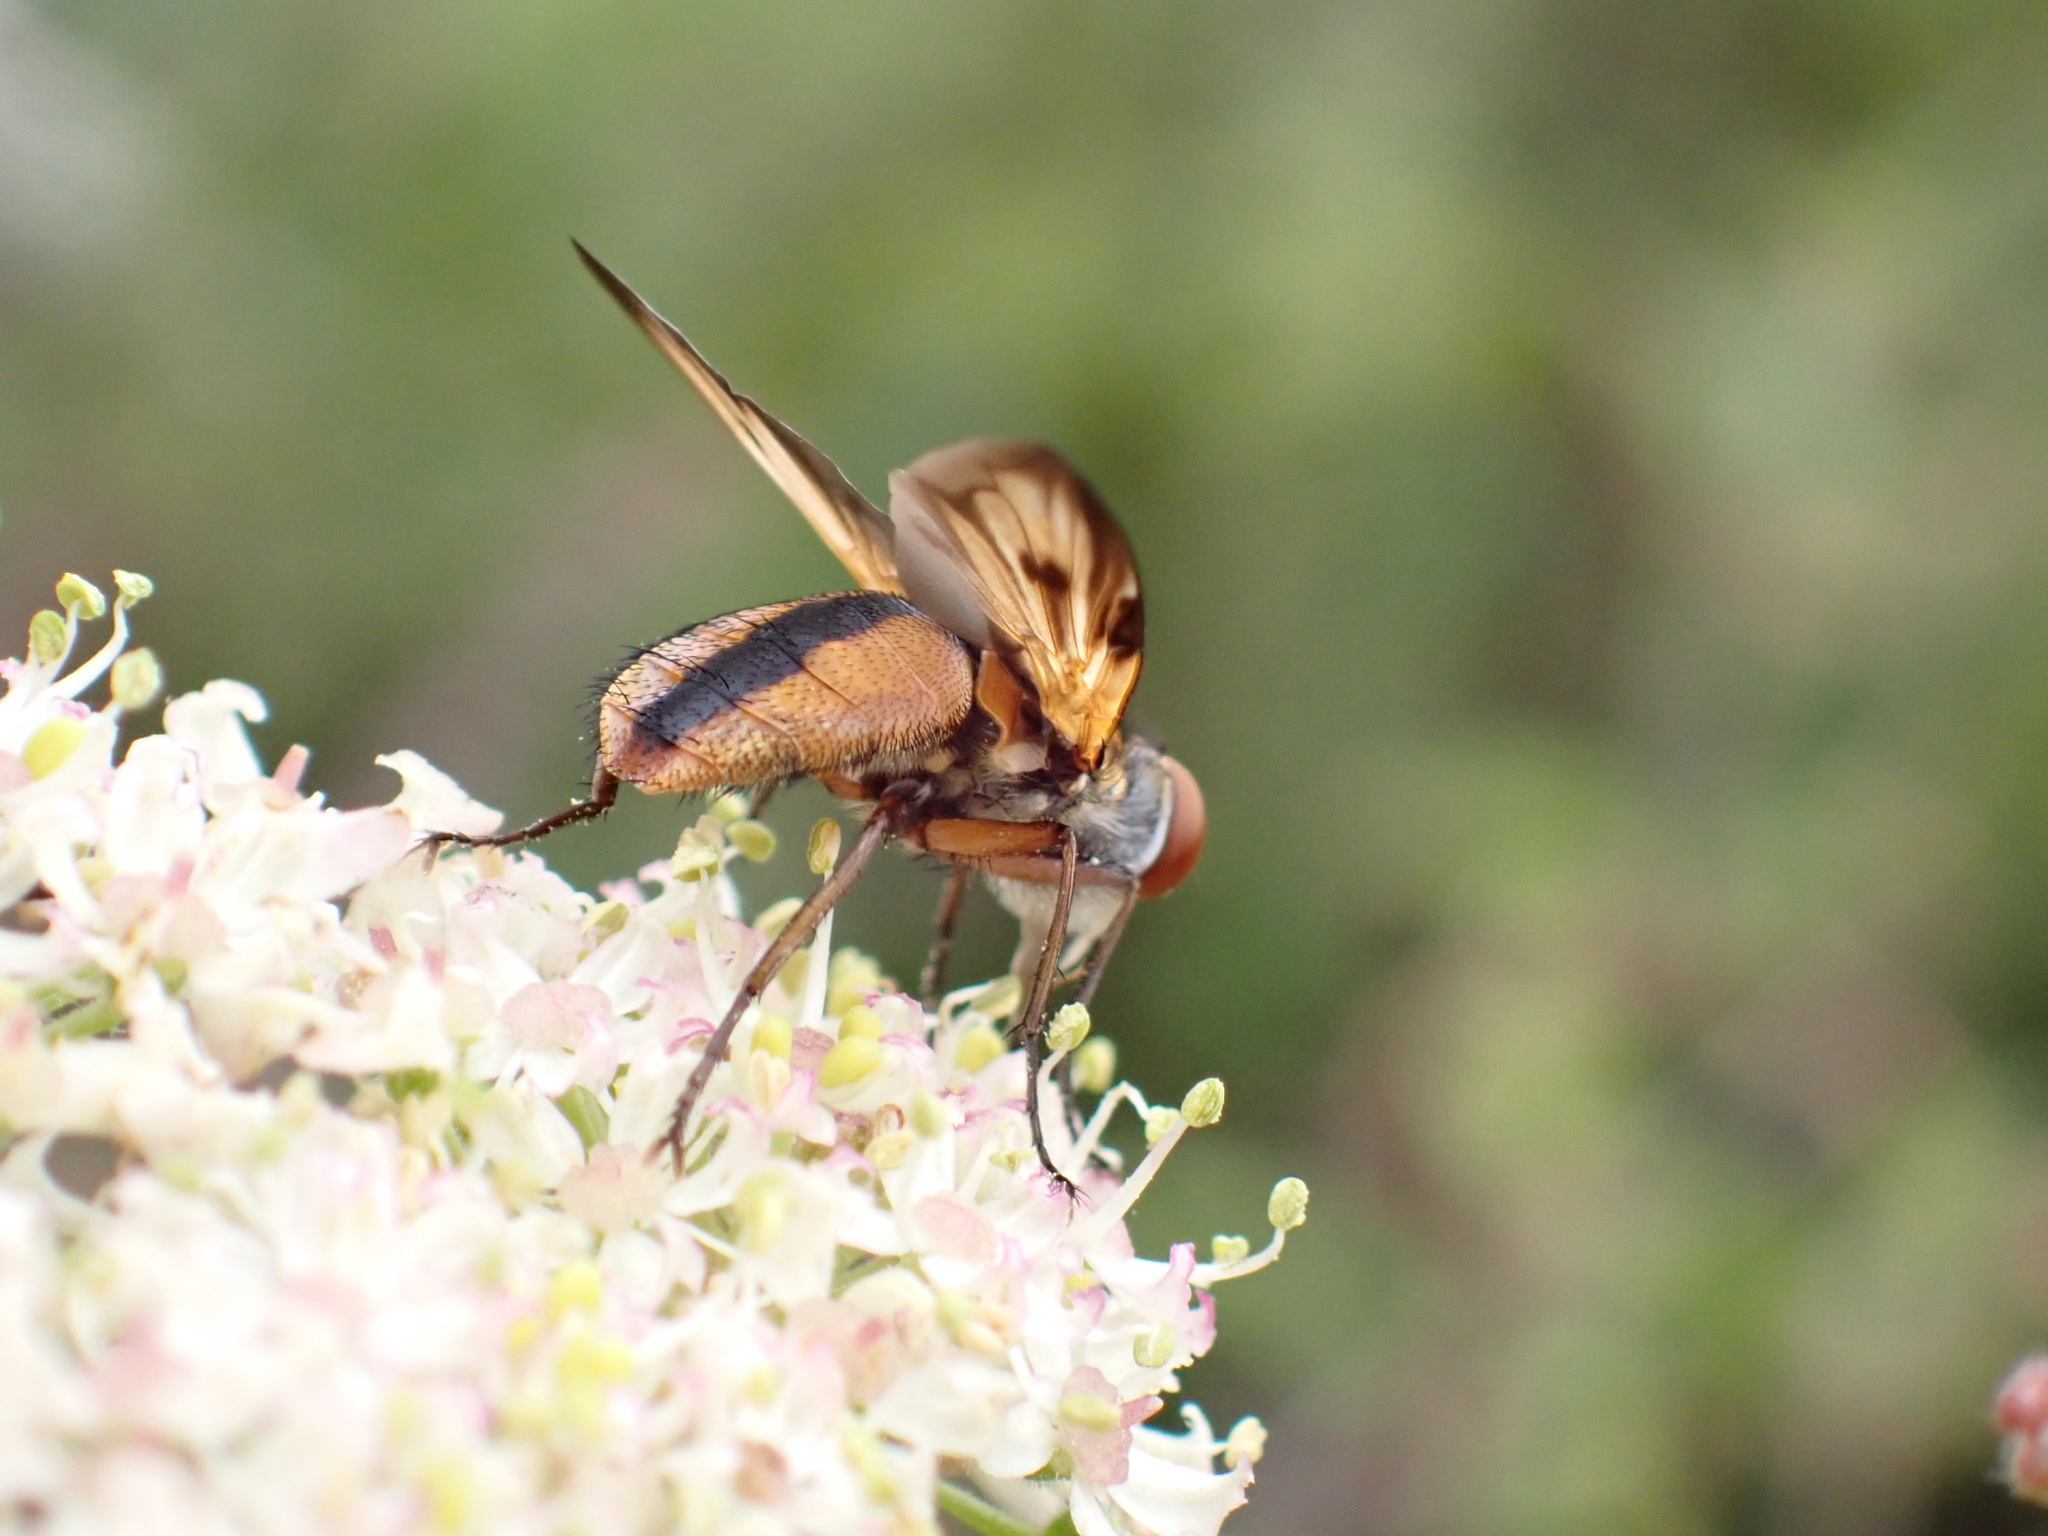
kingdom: Animalia
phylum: Arthropoda
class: Insecta
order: Diptera
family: Tachinidae
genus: Ectophasia
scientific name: Ectophasia crassipennis
